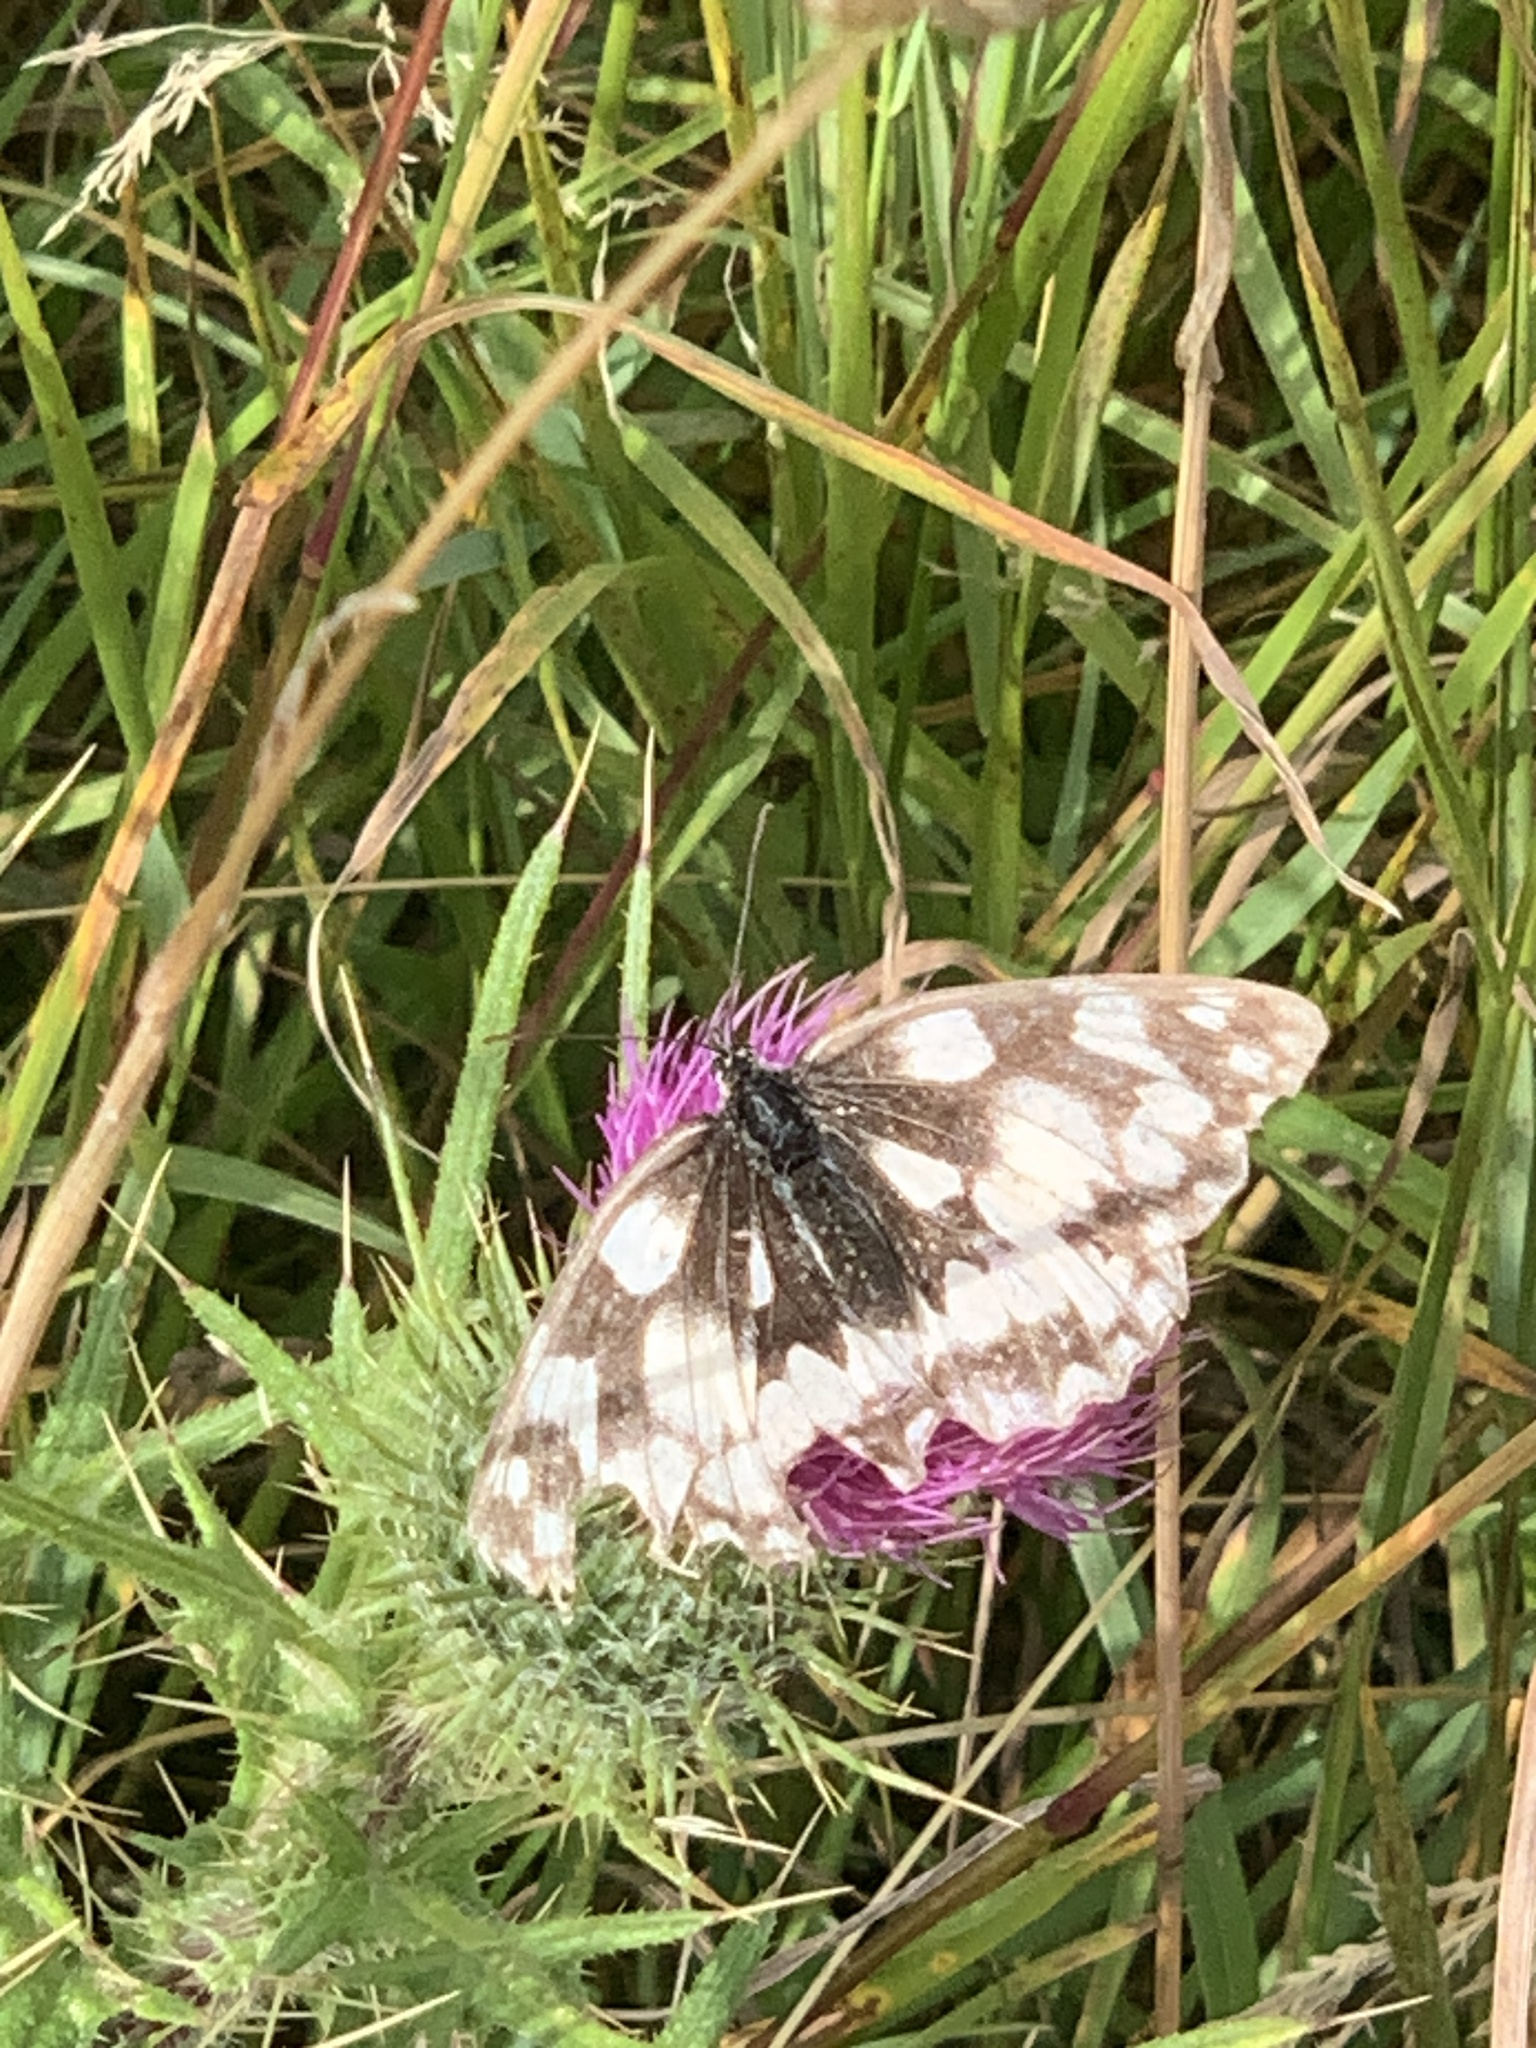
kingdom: Animalia
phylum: Arthropoda
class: Insecta
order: Lepidoptera
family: Nymphalidae
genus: Melanargia
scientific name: Melanargia galathea
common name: Marbled white
